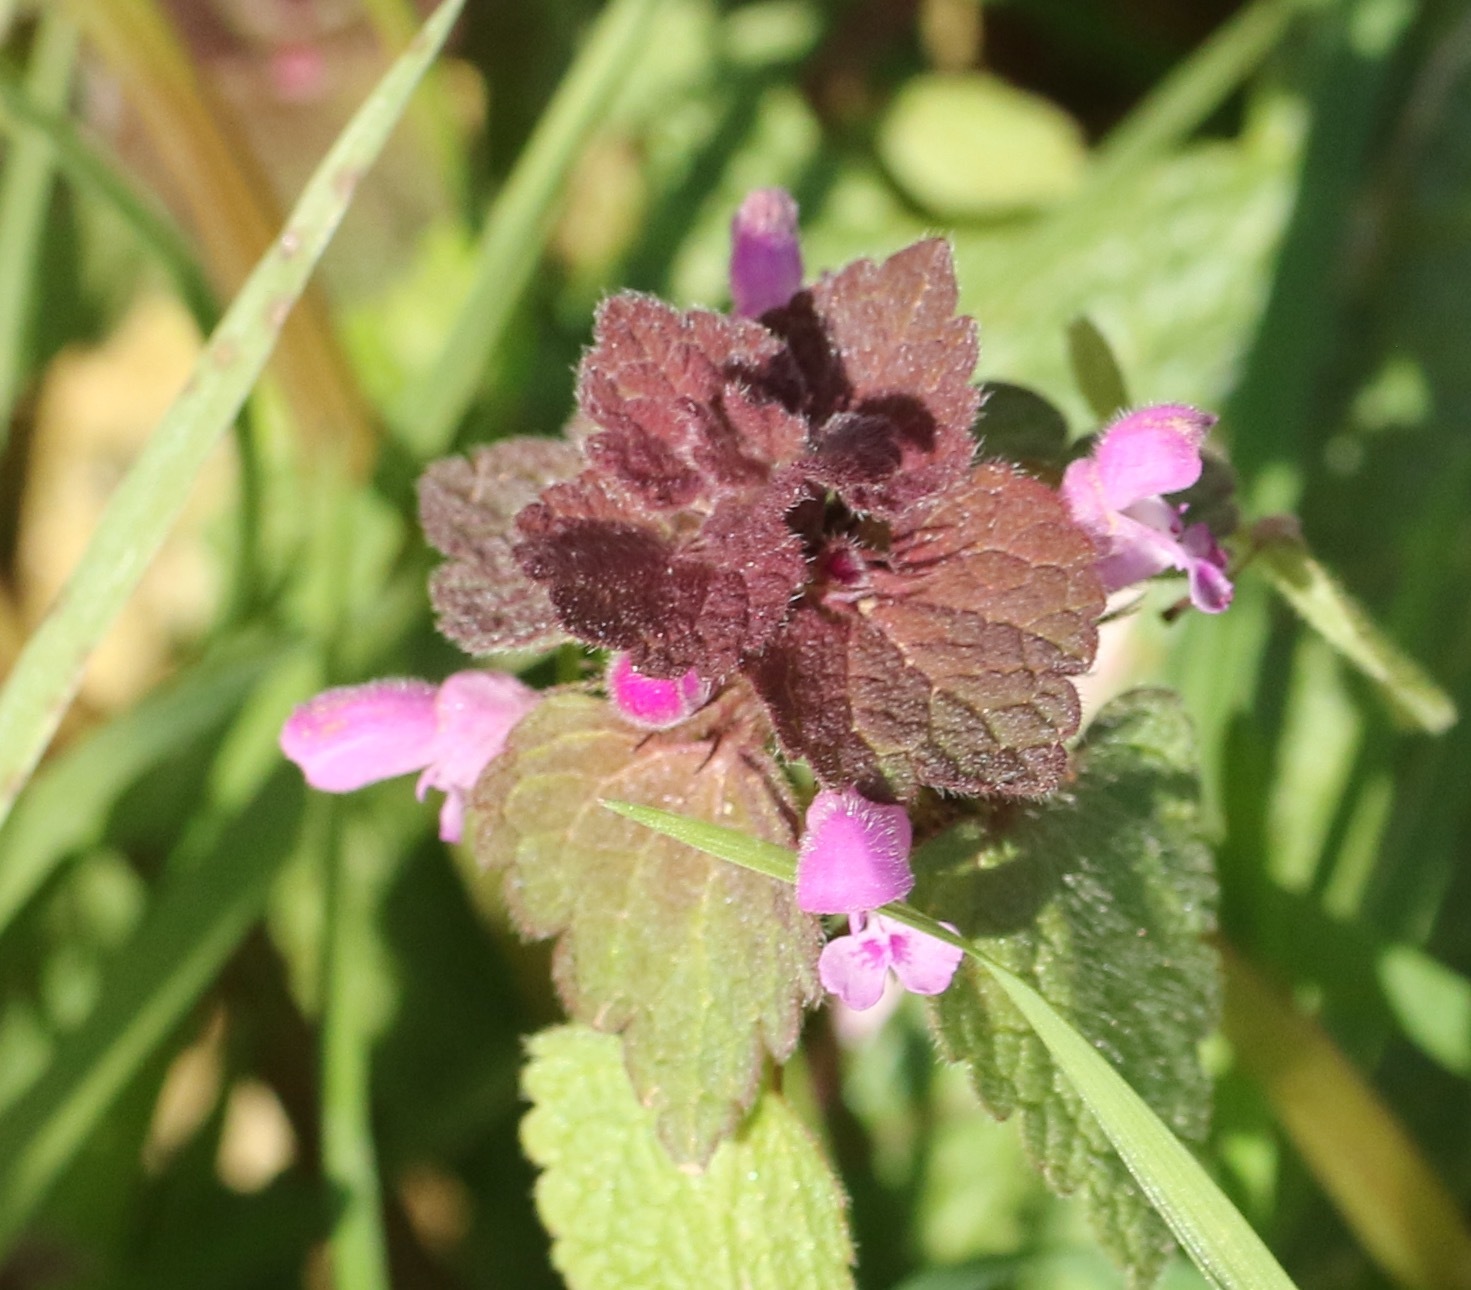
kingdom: Plantae
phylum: Tracheophyta
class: Magnoliopsida
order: Lamiales
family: Lamiaceae
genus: Lamium
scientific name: Lamium purpureum
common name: Red dead-nettle
